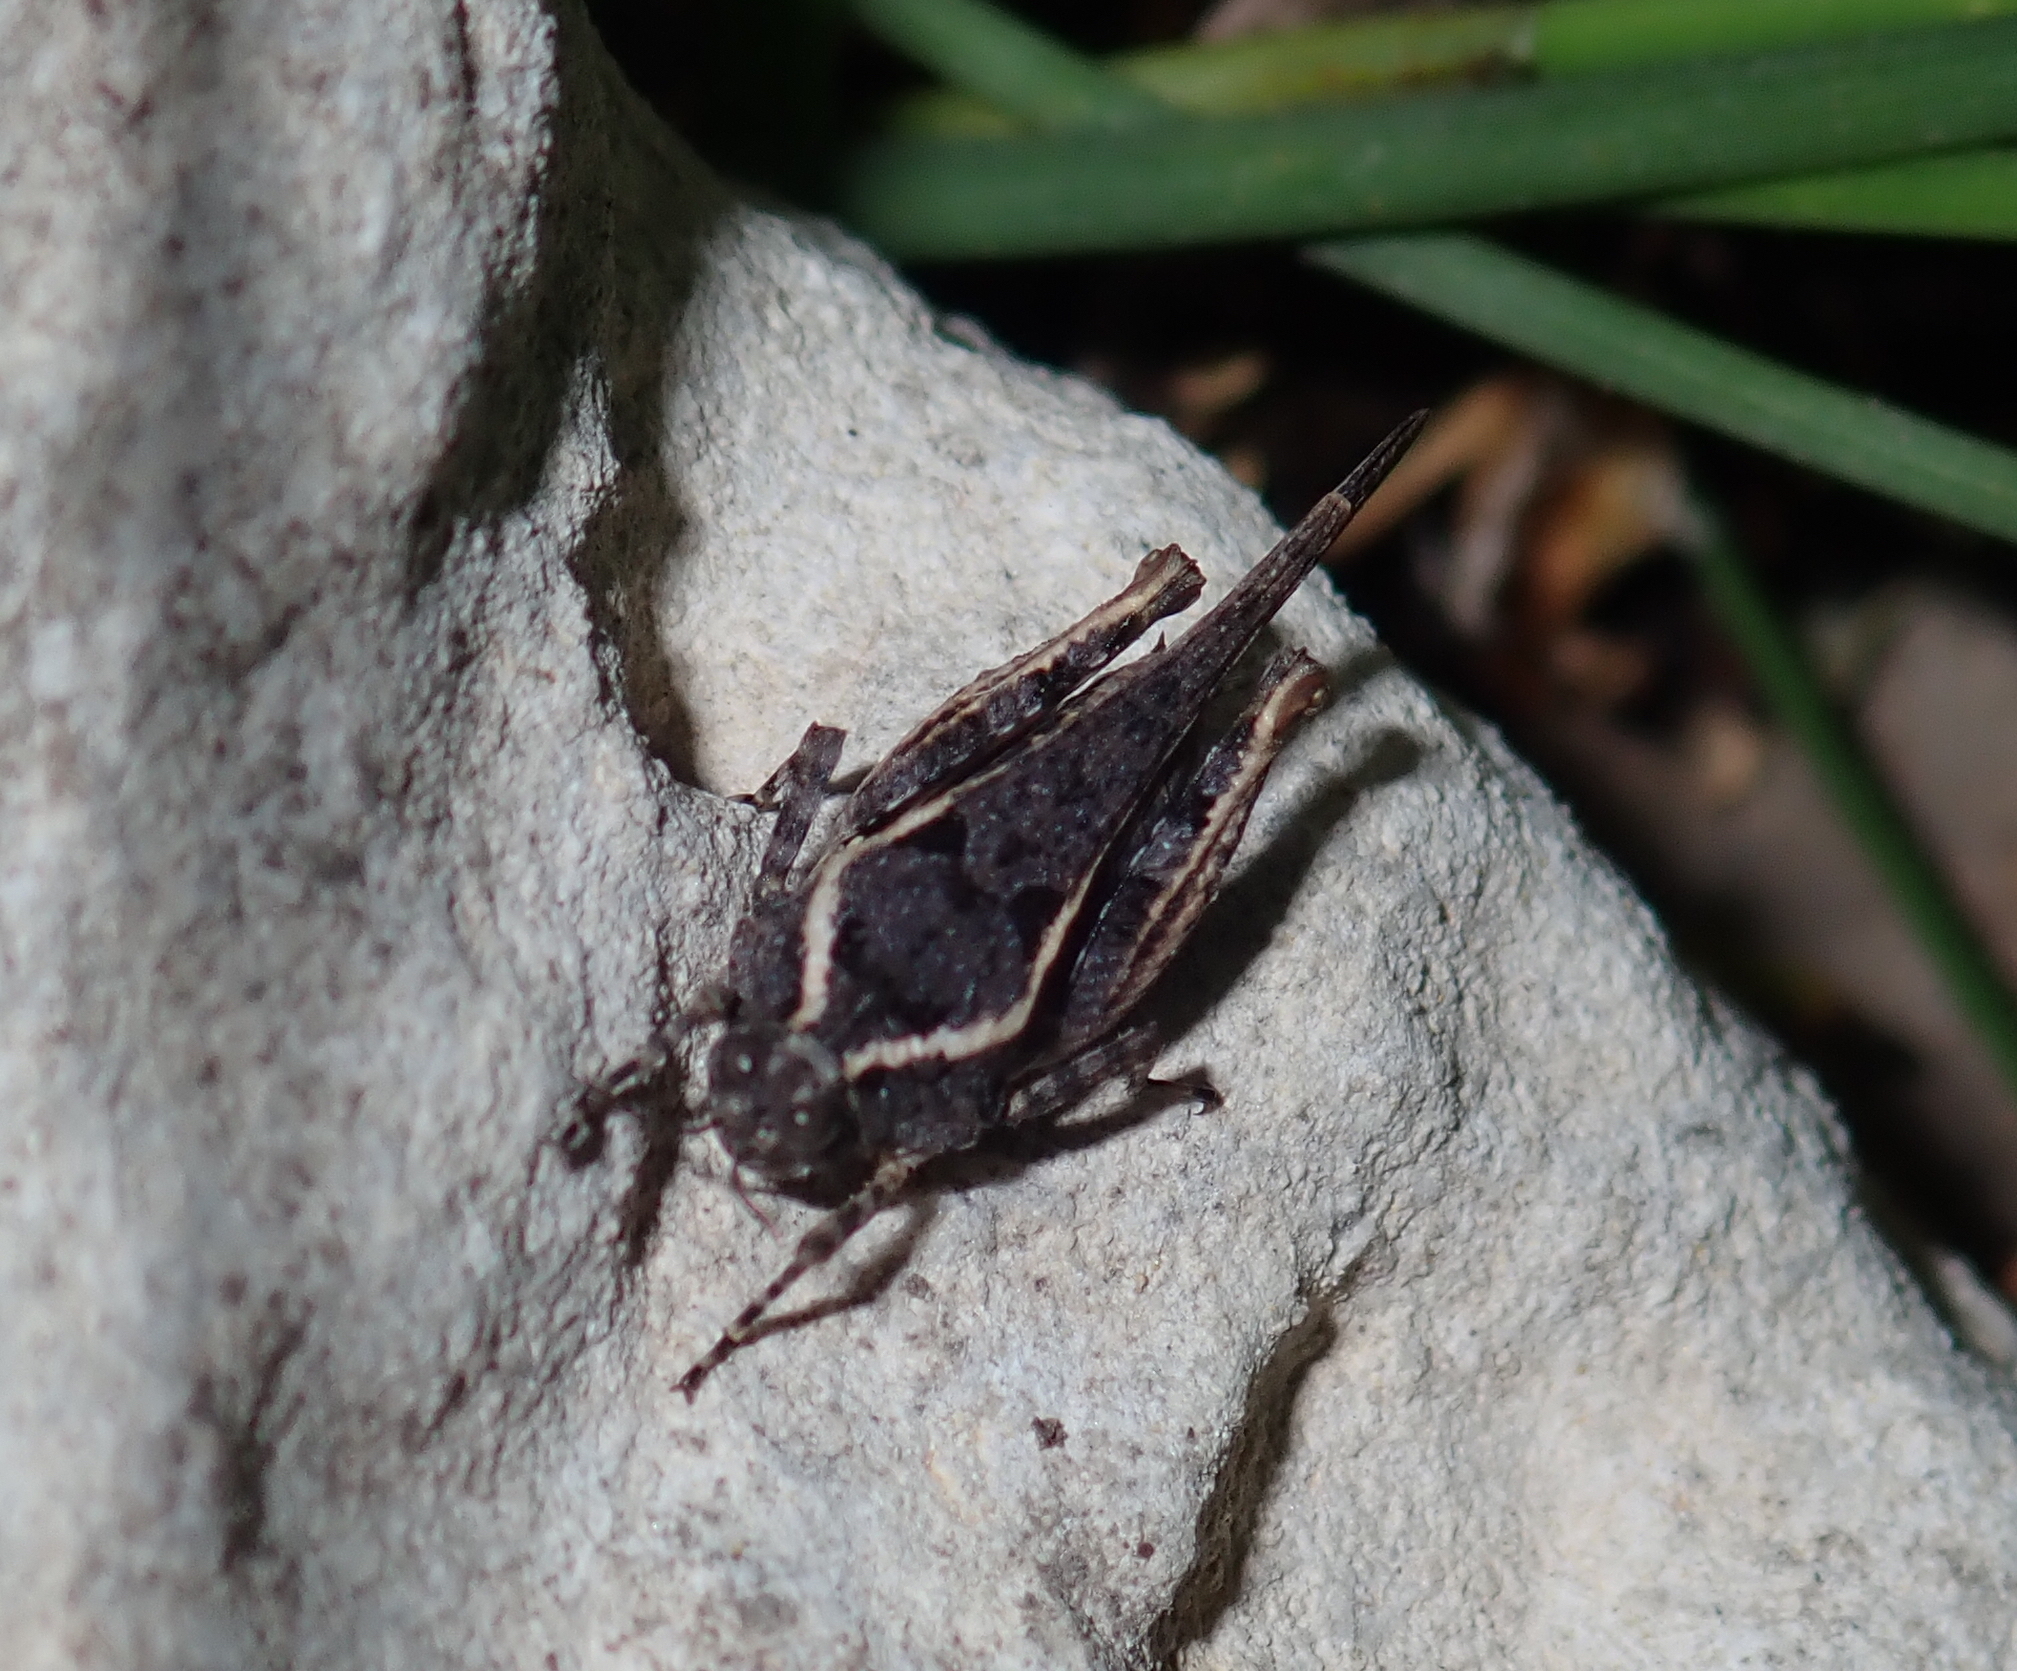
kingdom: Animalia
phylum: Arthropoda
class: Insecta
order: Orthoptera
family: Tetrigidae
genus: Paratettix
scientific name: Paratettix meridionalis
